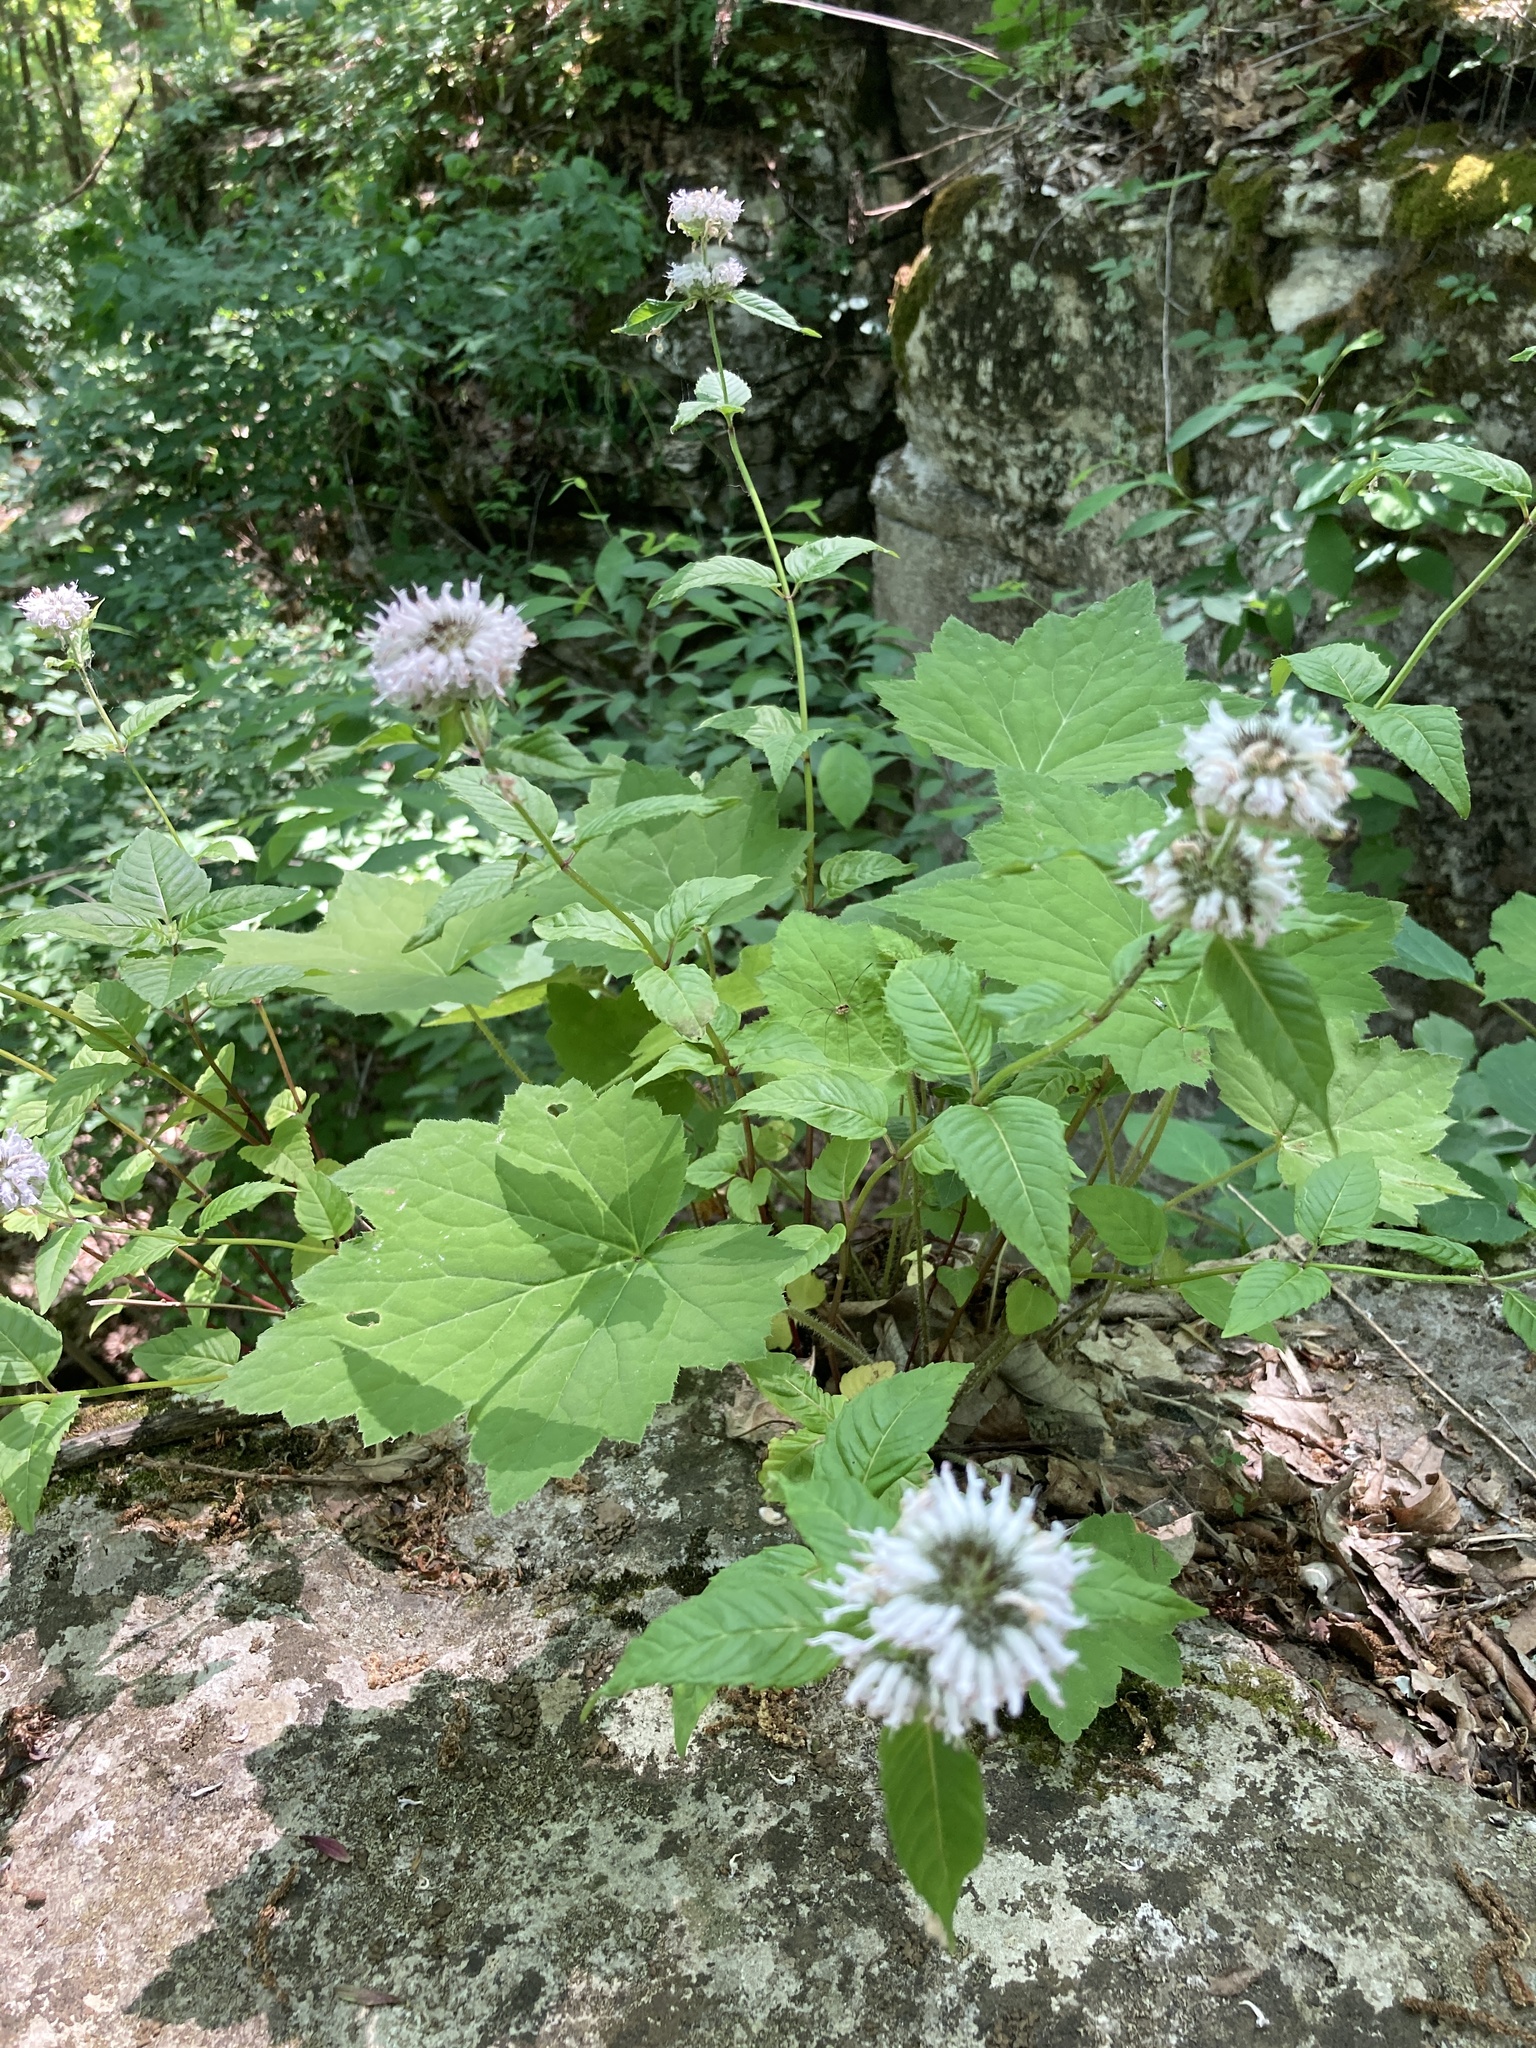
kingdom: Plantae
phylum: Tracheophyta
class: Magnoliopsida
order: Lamiales
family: Lamiaceae
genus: Blephilia
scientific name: Blephilia subnuda
